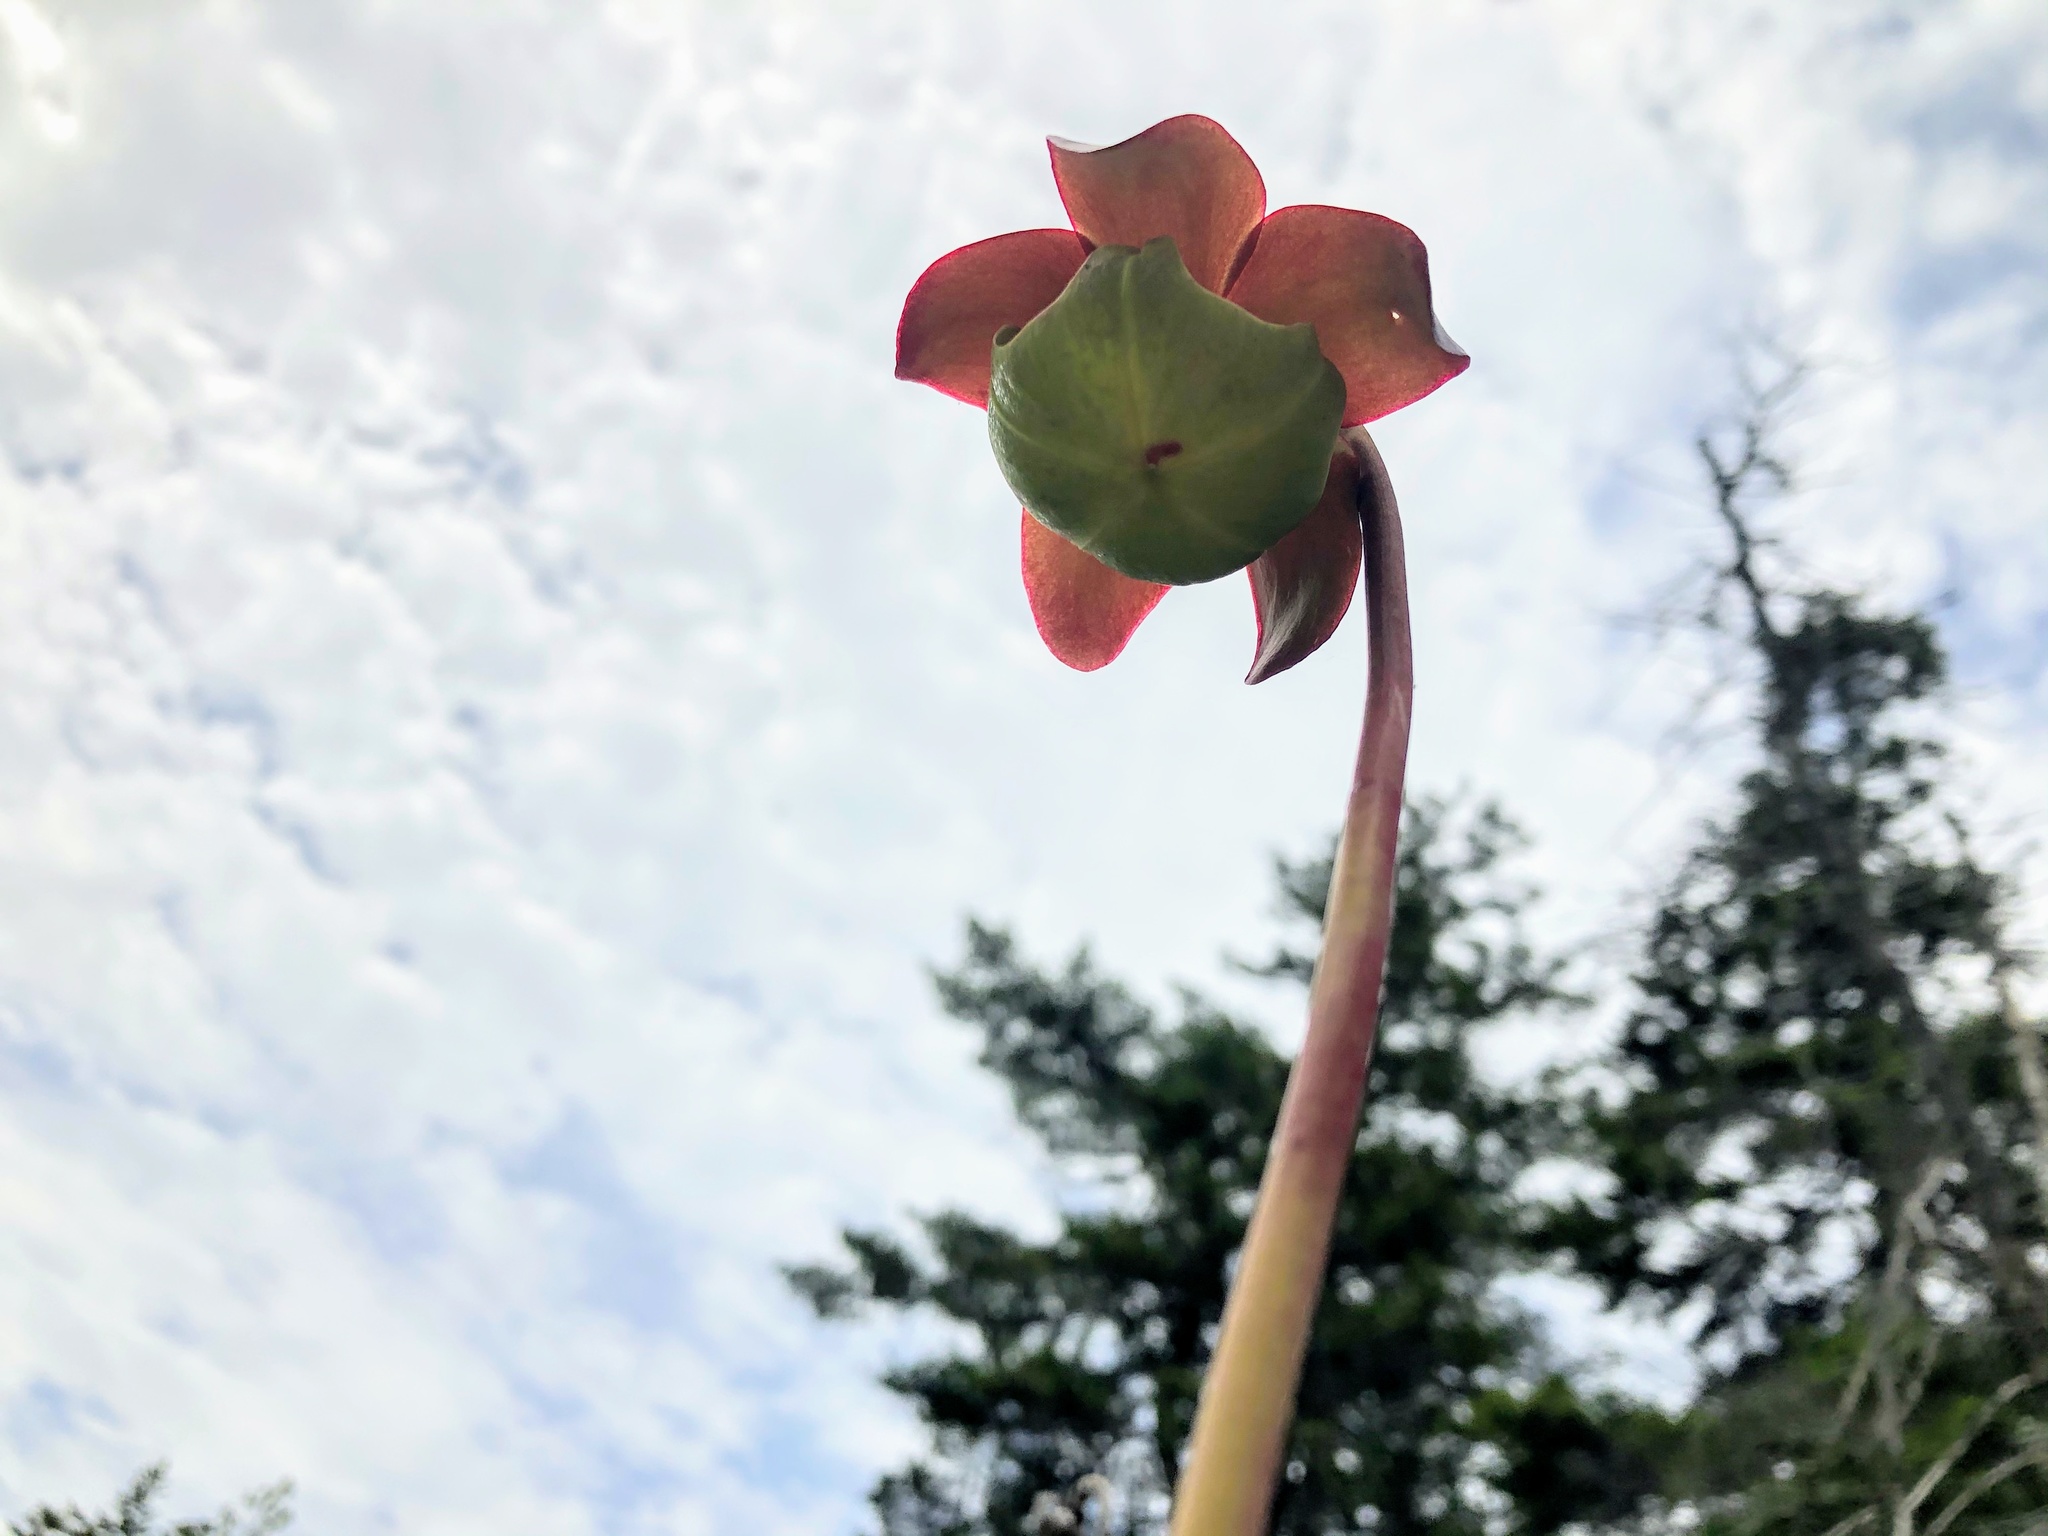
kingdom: Plantae
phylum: Tracheophyta
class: Magnoliopsida
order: Ericales
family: Sarraceniaceae
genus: Sarracenia
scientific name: Sarracenia purpurea
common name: Pitcherplant
